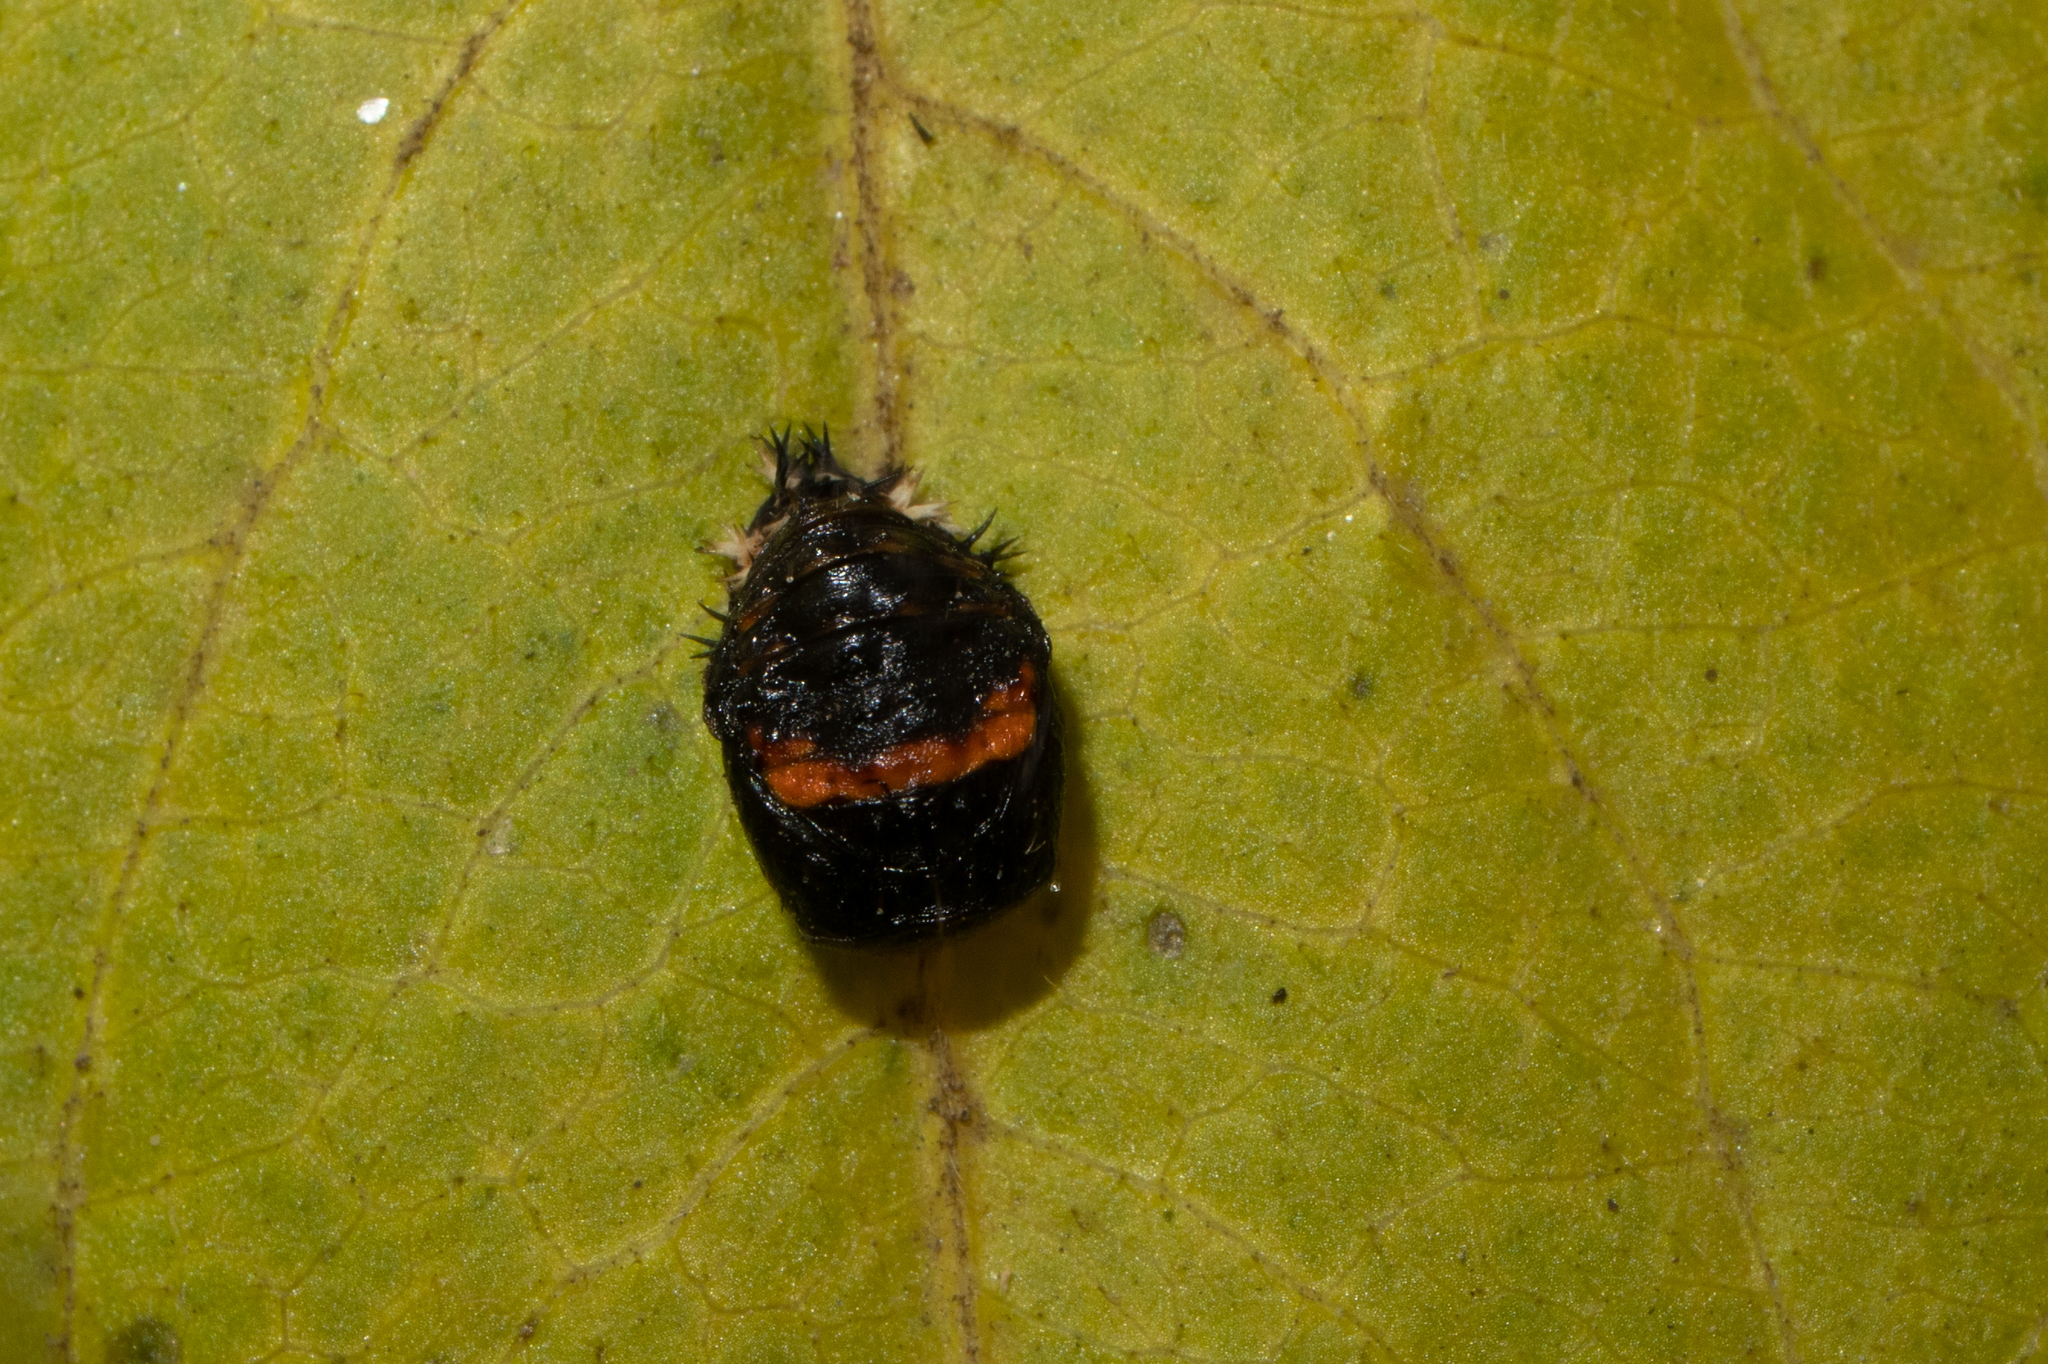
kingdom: Animalia
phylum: Arthropoda
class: Insecta
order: Coleoptera
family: Coccinellidae
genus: Harmonia
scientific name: Harmonia axyridis
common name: Harlequin ladybird
